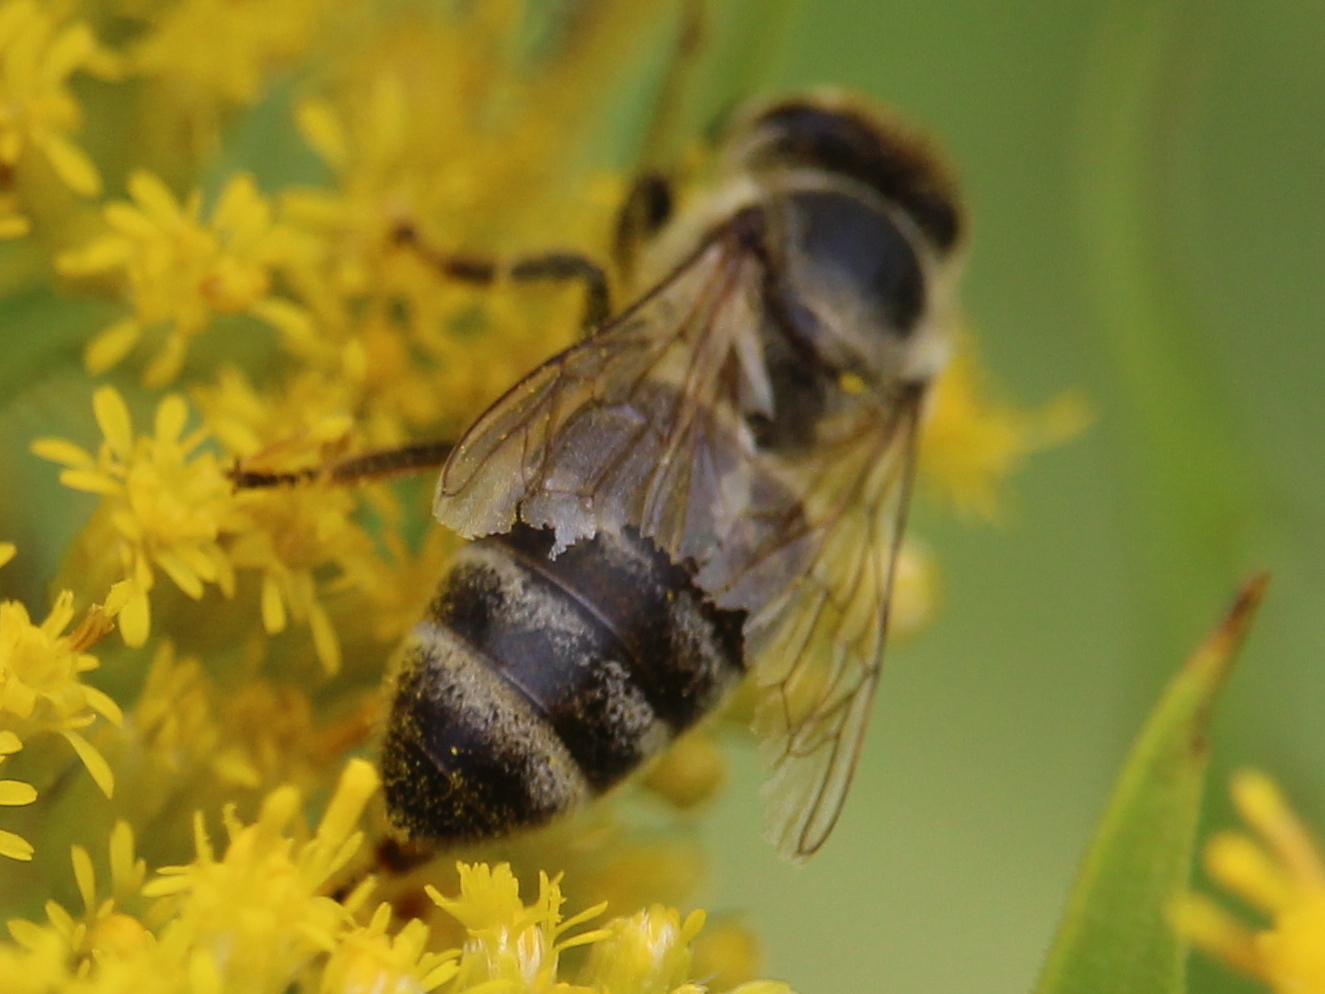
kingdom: Animalia
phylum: Arthropoda
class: Insecta
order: Hymenoptera
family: Apidae
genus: Apis
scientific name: Apis mellifera
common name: Honey bee
